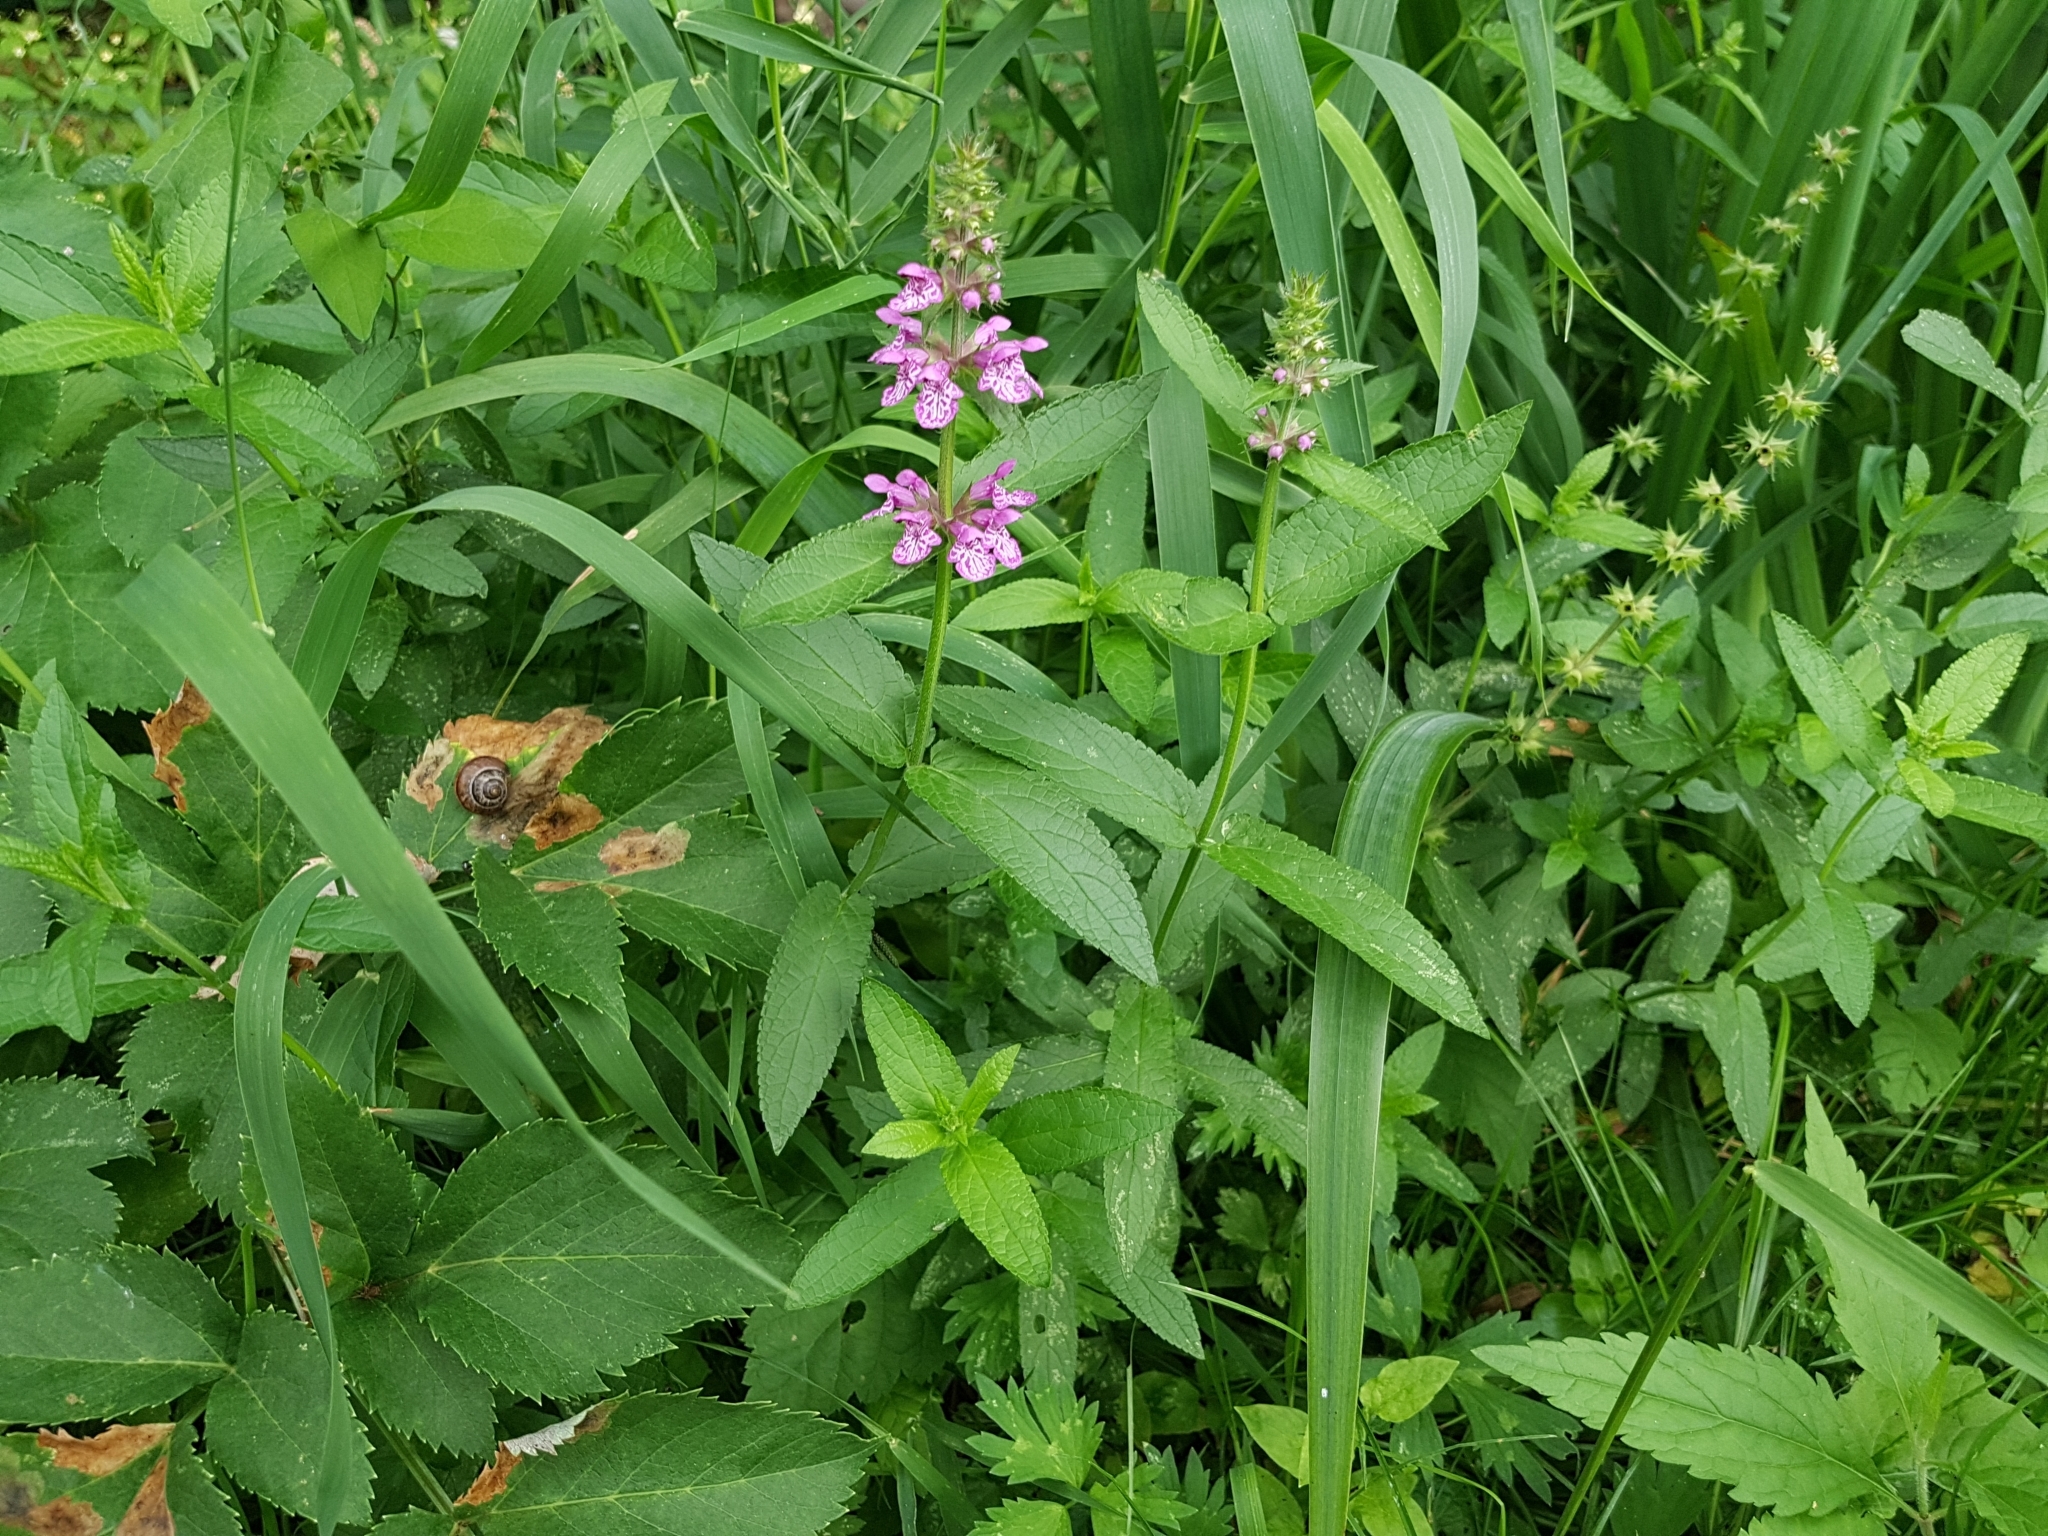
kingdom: Plantae
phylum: Tracheophyta
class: Magnoliopsida
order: Lamiales
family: Lamiaceae
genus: Stachys
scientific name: Stachys palustris
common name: Marsh woundwort
